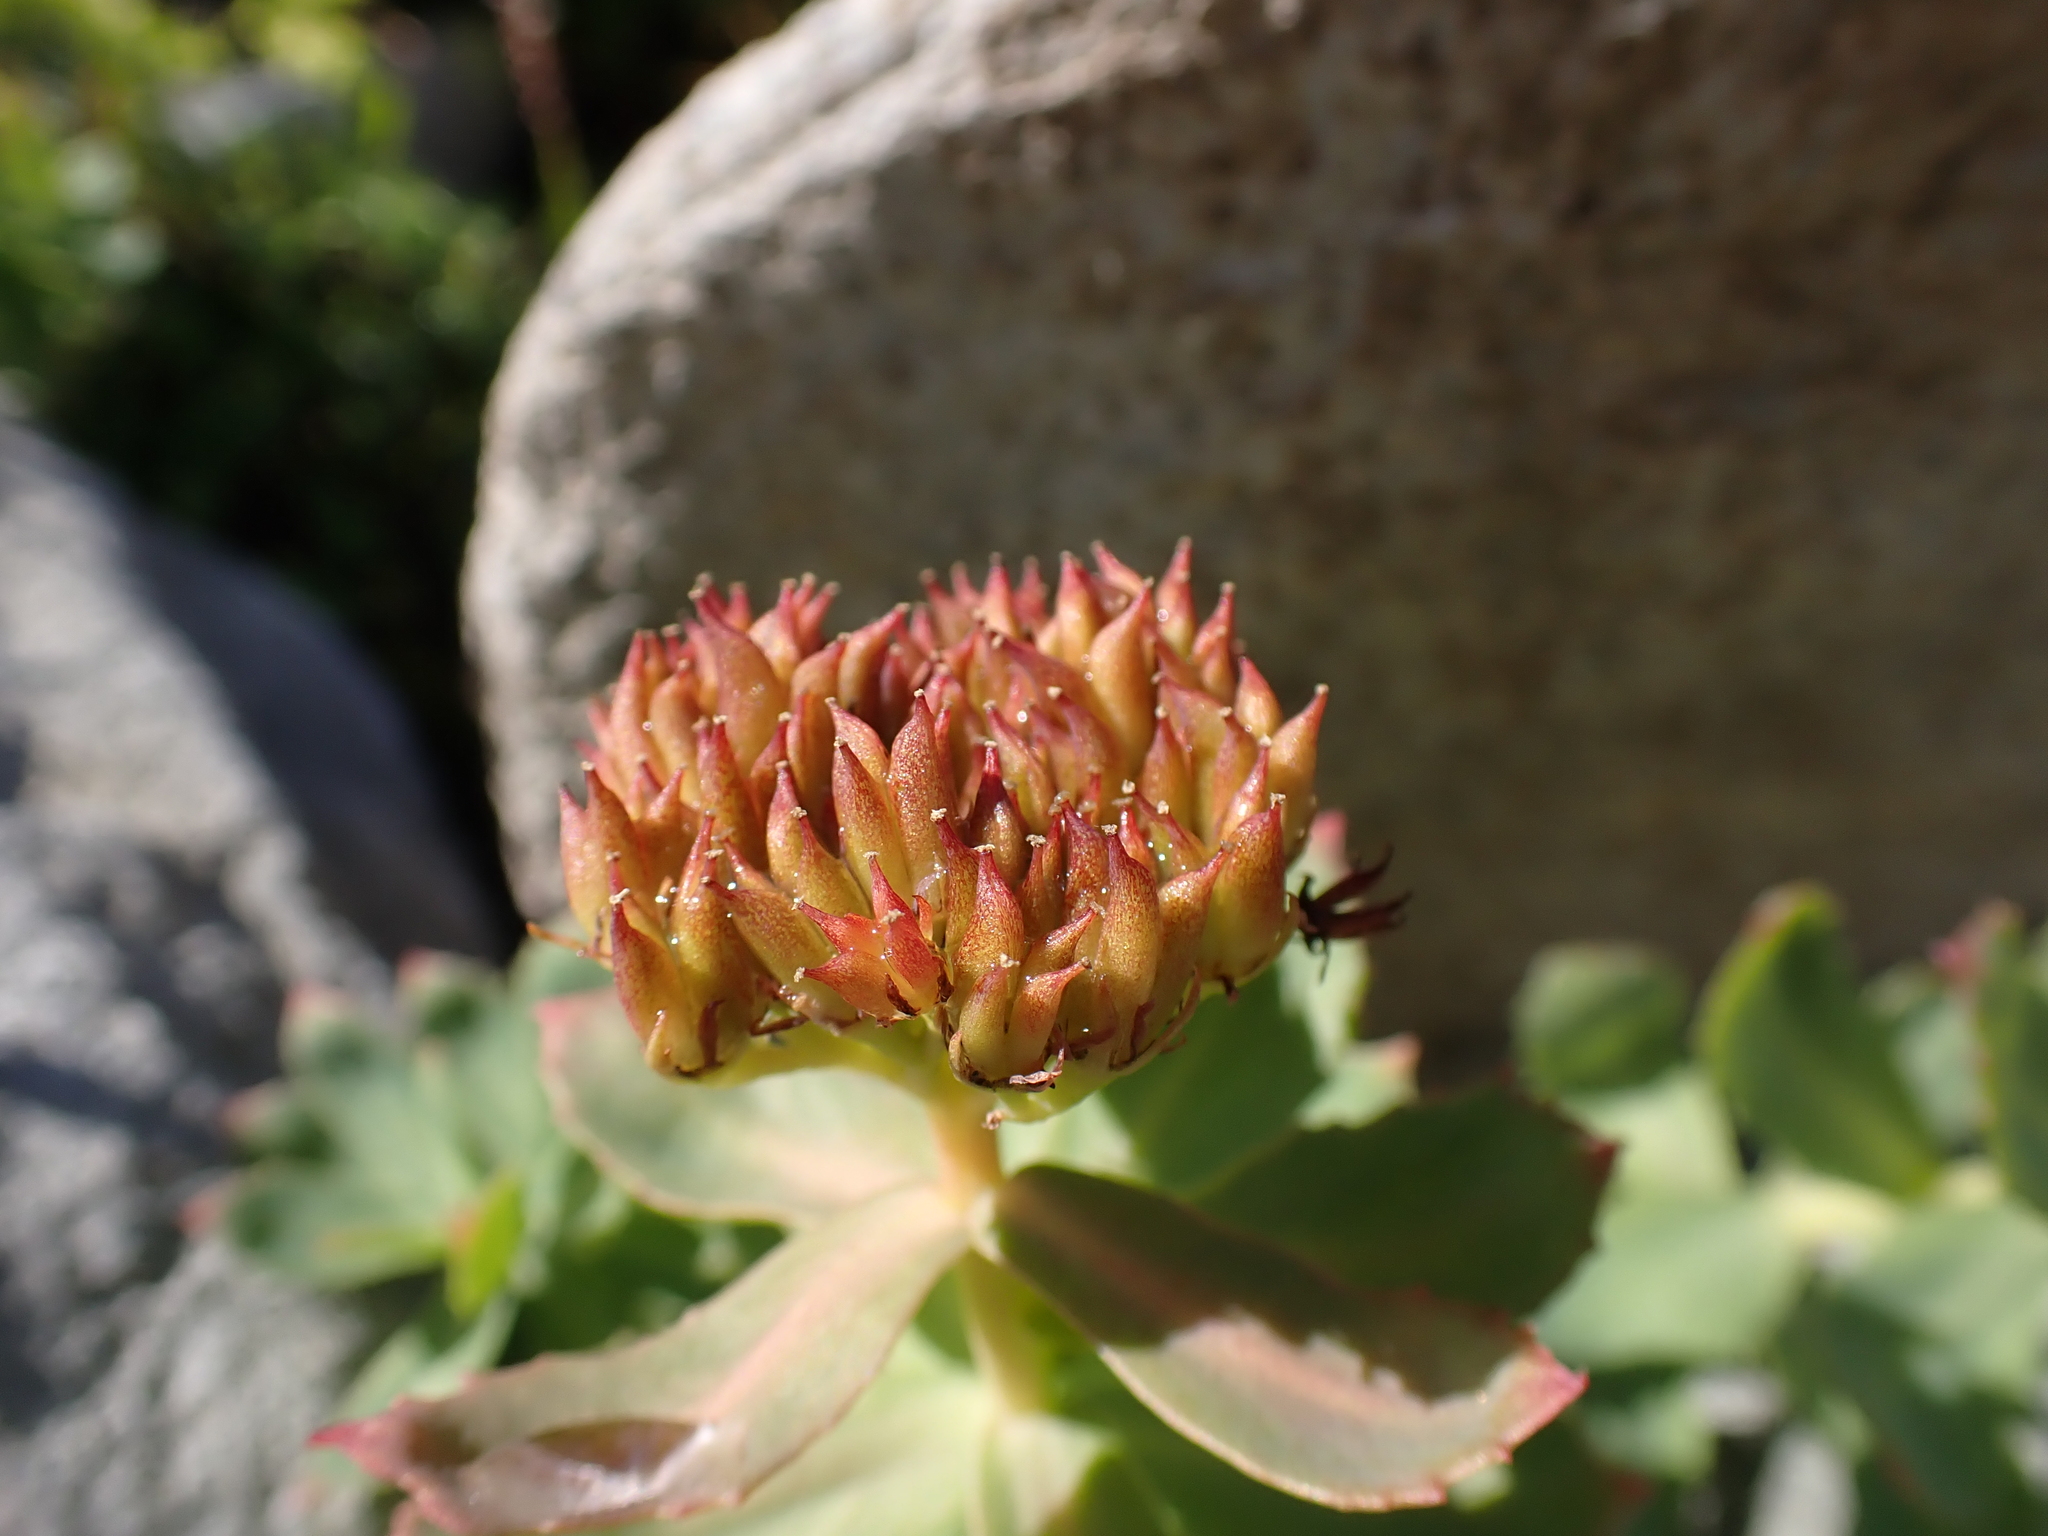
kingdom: Plantae
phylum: Tracheophyta
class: Magnoliopsida
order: Saxifragales
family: Crassulaceae
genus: Rhodiola
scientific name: Rhodiola rosea
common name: Roseroot
